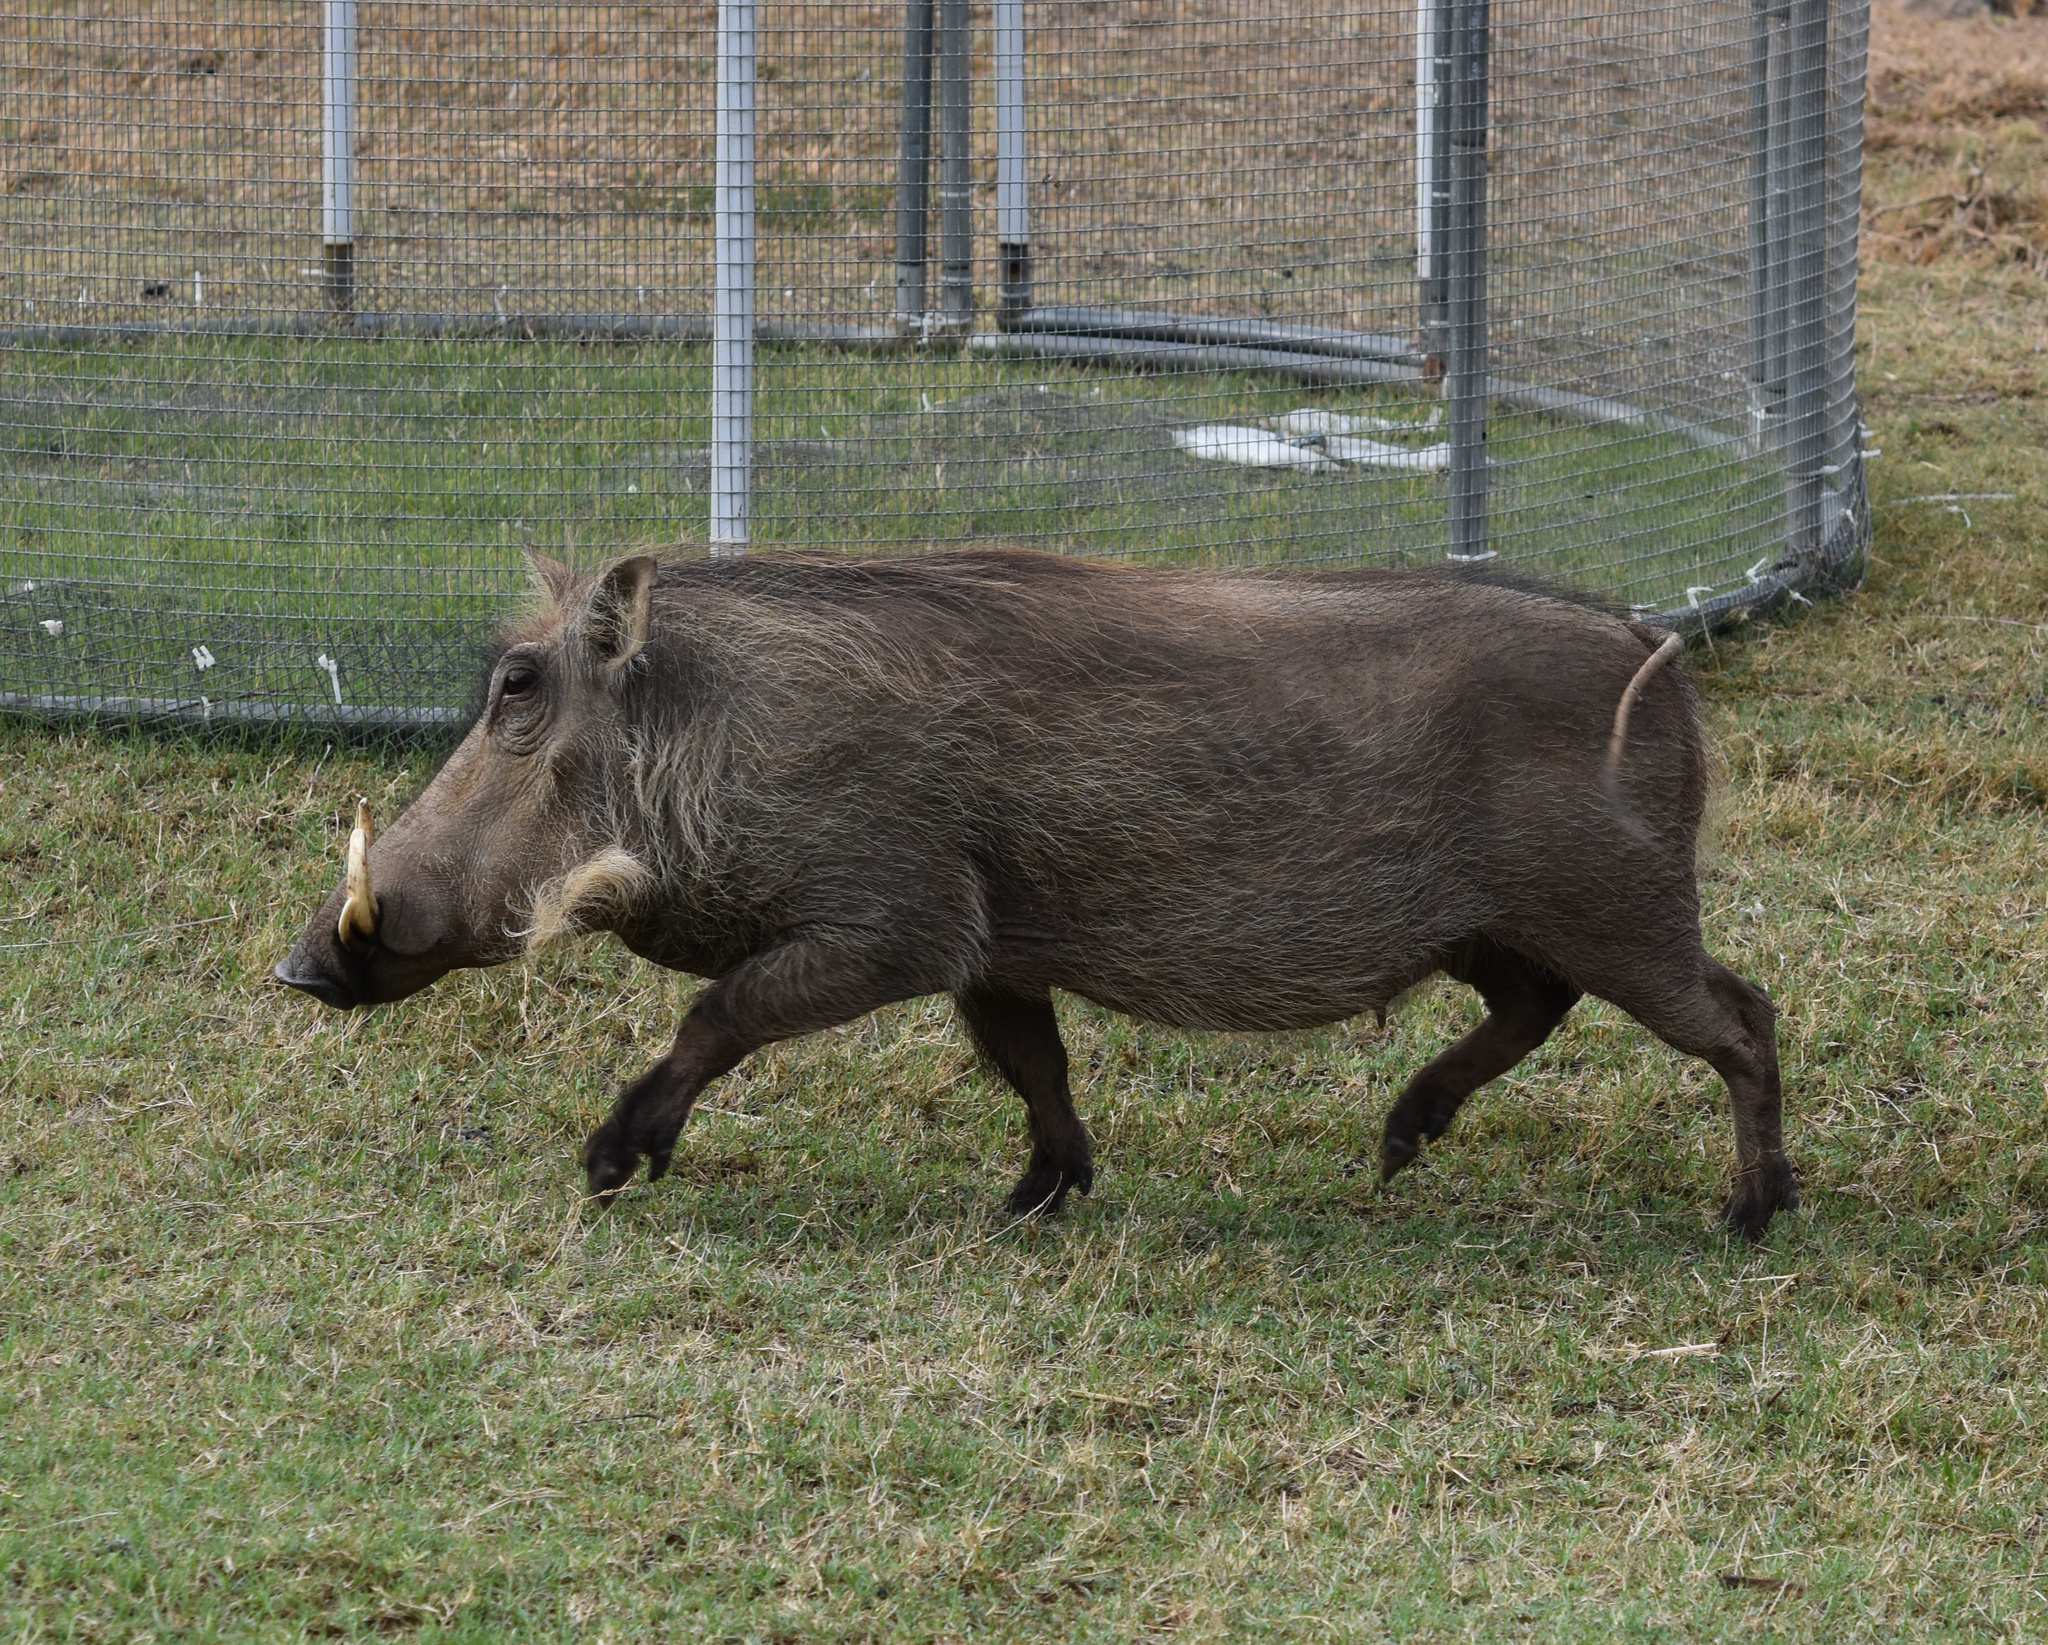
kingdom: Animalia
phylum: Chordata
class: Mammalia
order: Artiodactyla
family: Suidae
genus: Phacochoerus
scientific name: Phacochoerus africanus
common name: Common warthog
